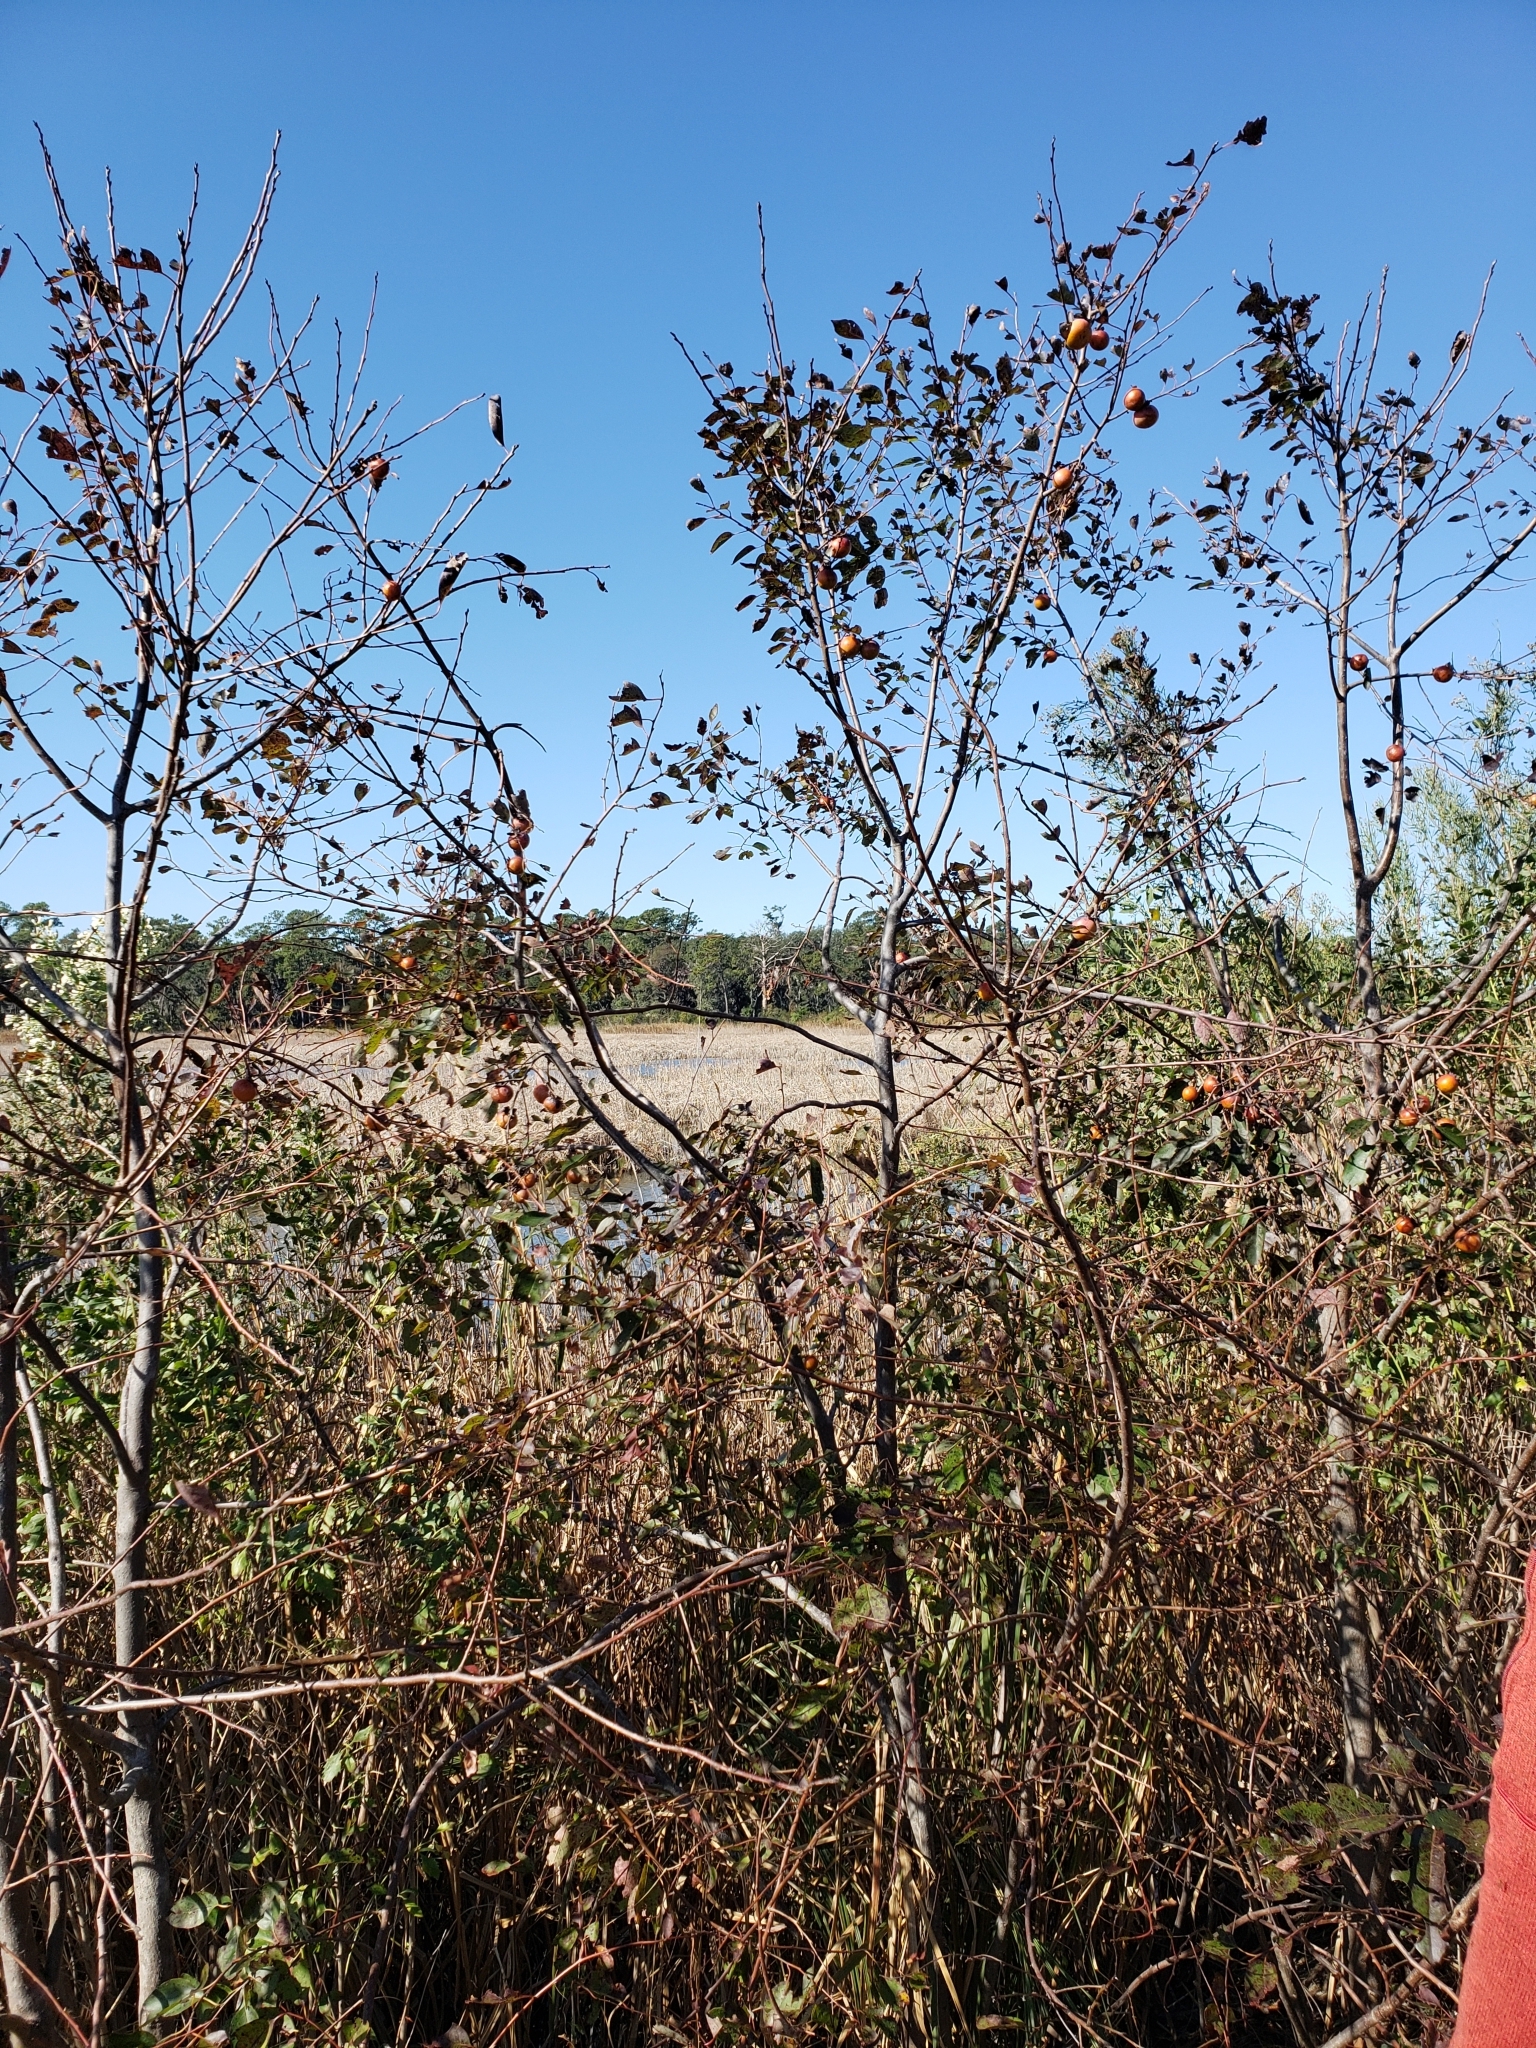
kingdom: Plantae
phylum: Tracheophyta
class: Magnoliopsida
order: Ericales
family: Ebenaceae
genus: Diospyros
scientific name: Diospyros virginiana
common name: Persimmon
